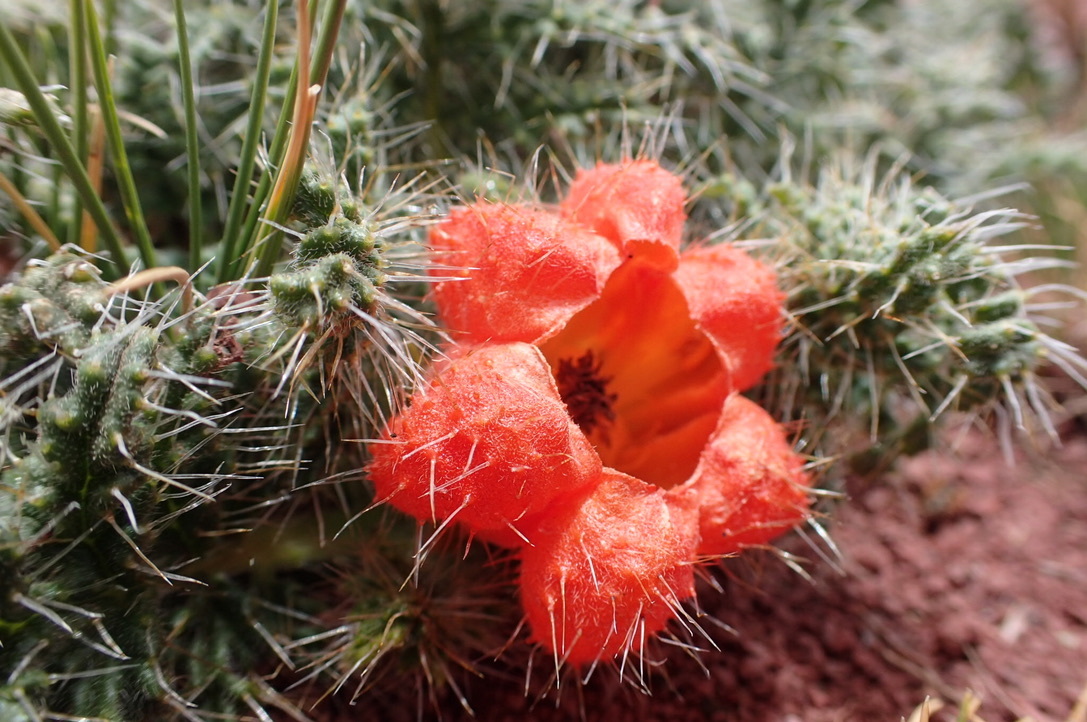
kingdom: Plantae
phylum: Tracheophyta
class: Magnoliopsida
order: Cornales
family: Loasaceae
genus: Caiophora
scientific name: Caiophora rosulata
